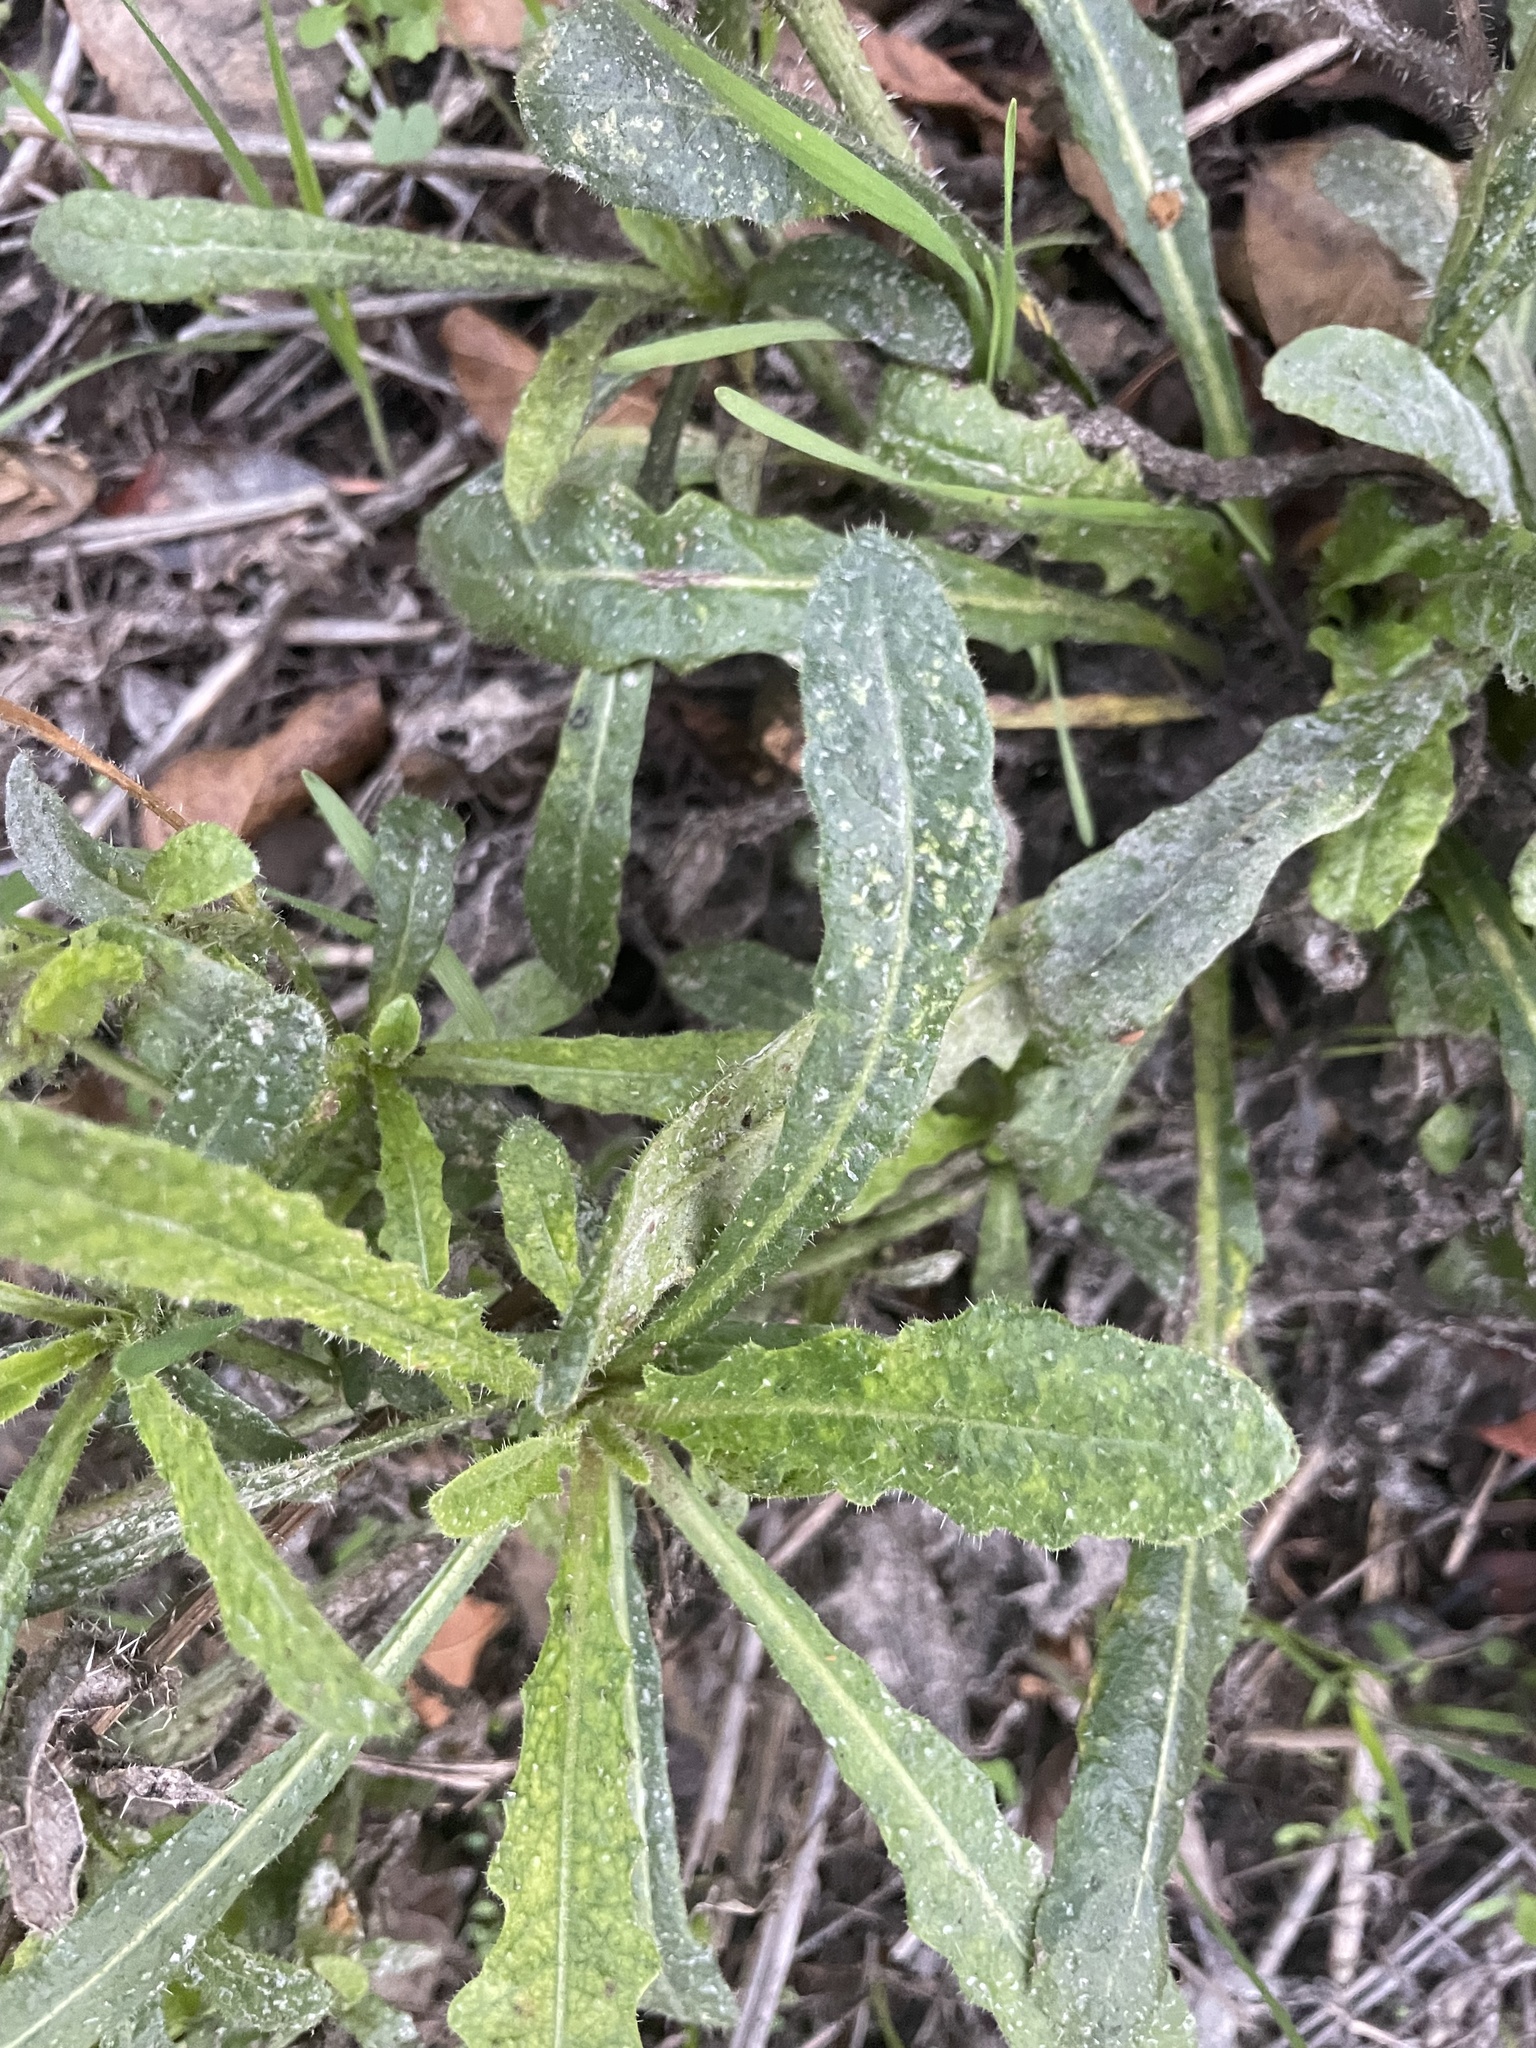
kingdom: Plantae
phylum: Tracheophyta
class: Magnoliopsida
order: Asterales
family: Asteraceae
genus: Helminthotheca
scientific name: Helminthotheca echioides
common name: Ox-tongue
